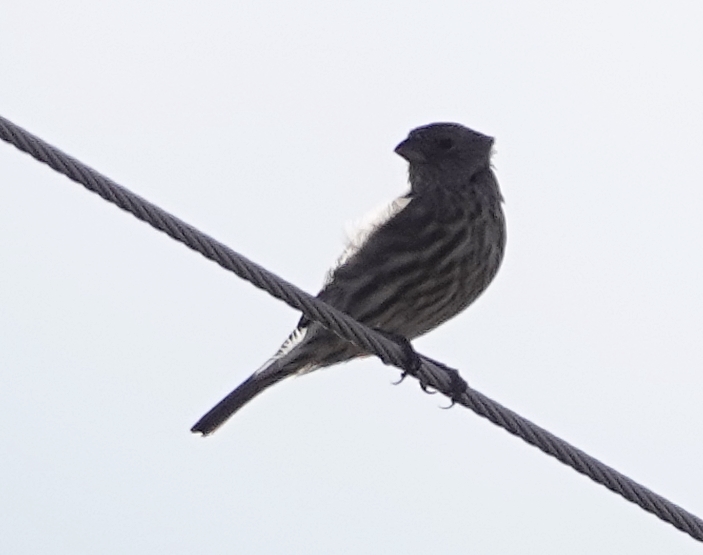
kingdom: Animalia
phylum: Chordata
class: Aves
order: Passeriformes
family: Fringillidae
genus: Haemorhous
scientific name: Haemorhous mexicanus
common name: House finch
